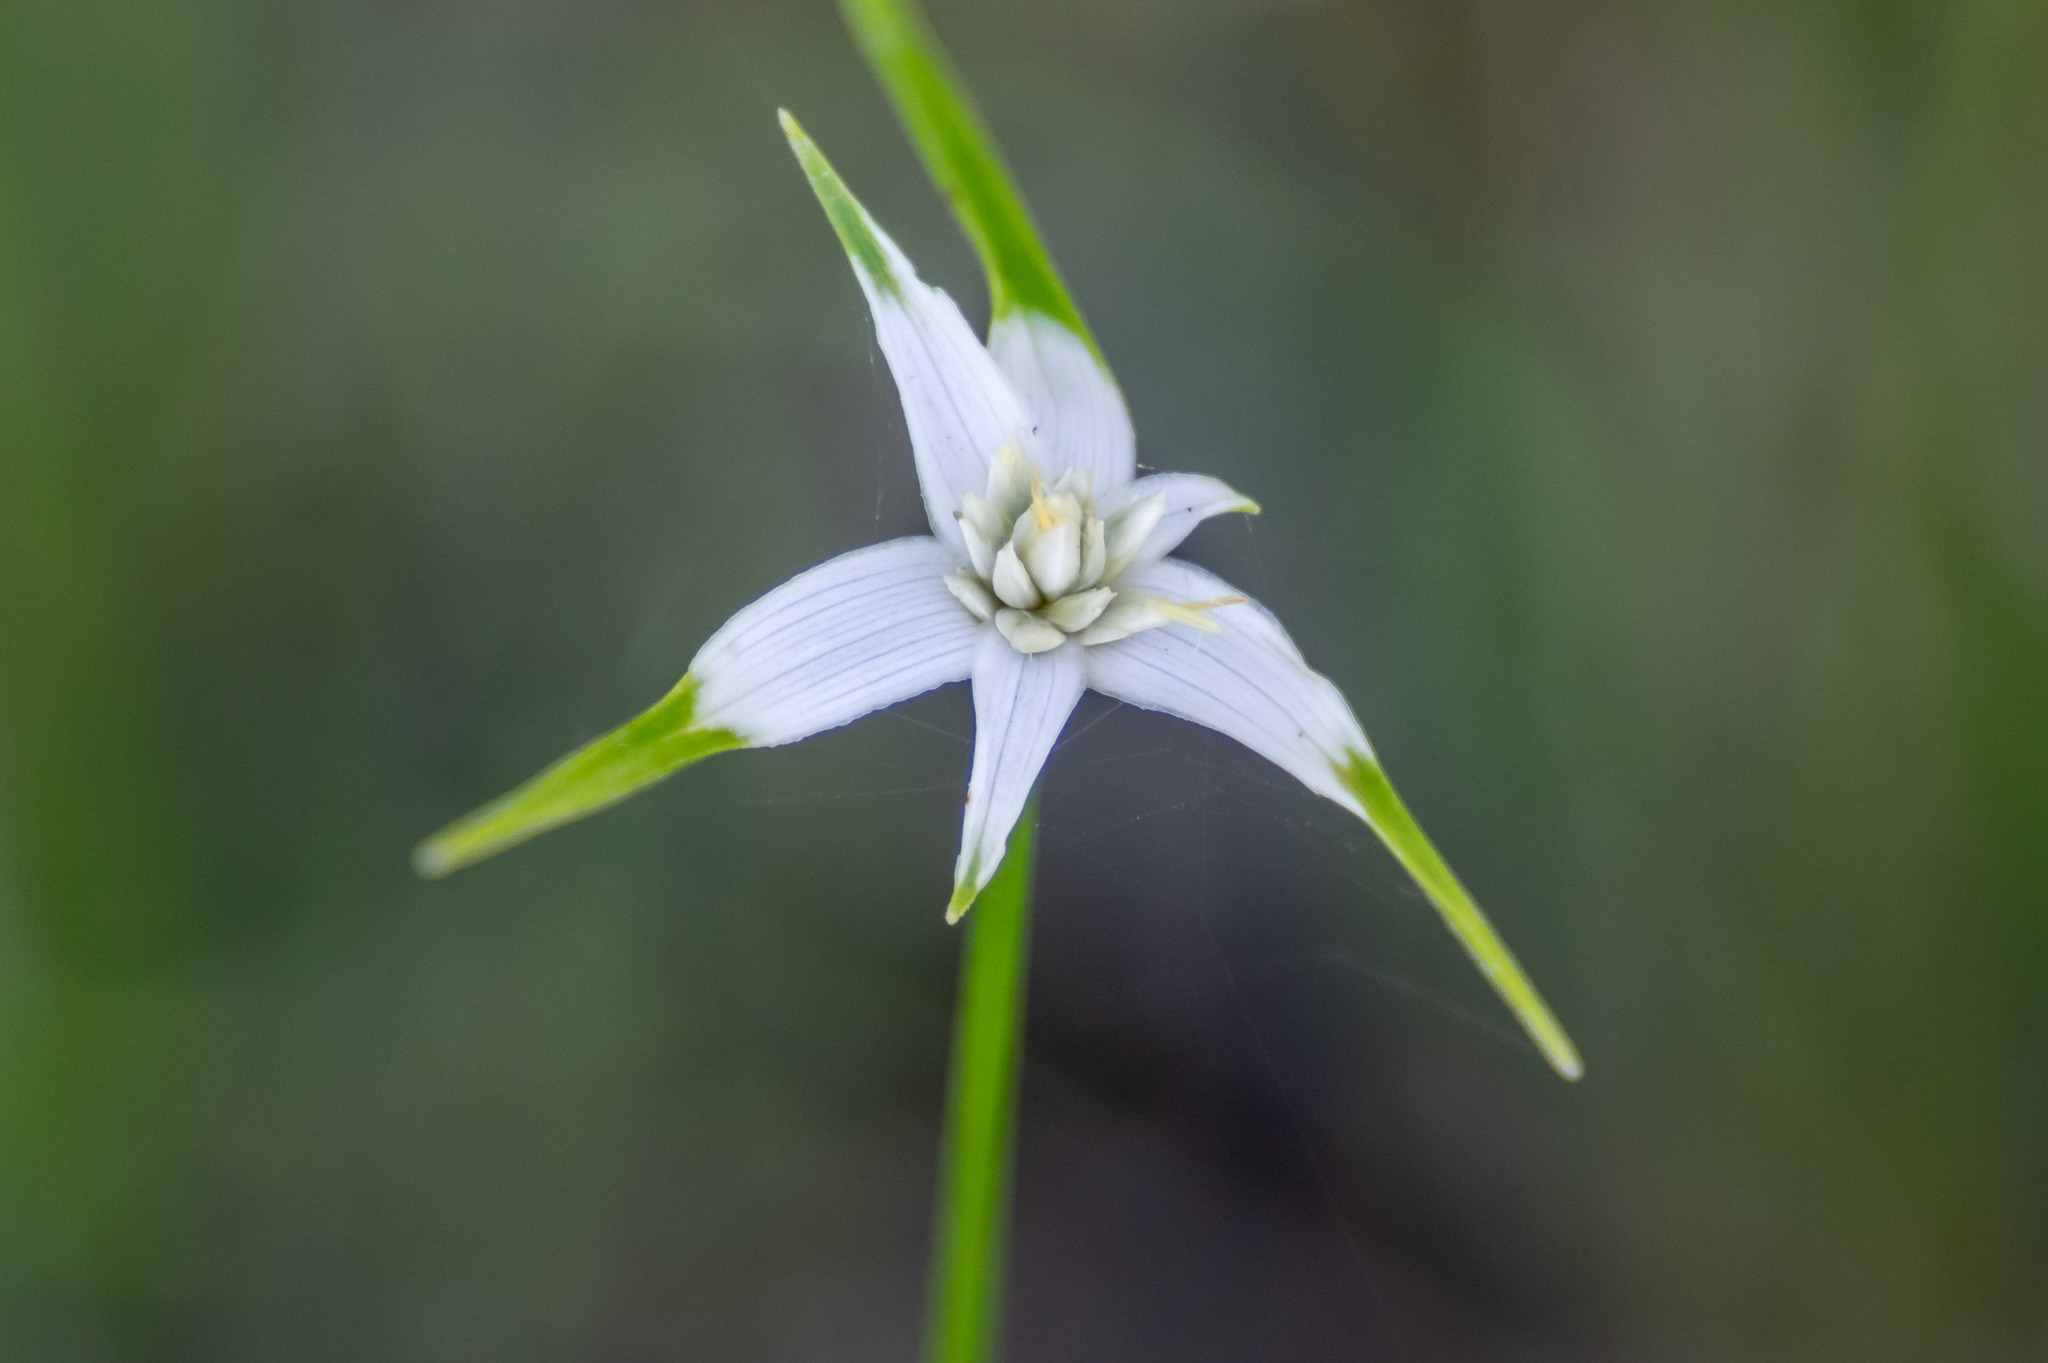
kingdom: Plantae
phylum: Tracheophyta
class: Liliopsida
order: Poales
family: Cyperaceae
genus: Rhynchospora
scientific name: Rhynchospora colorata
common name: Star sedge
